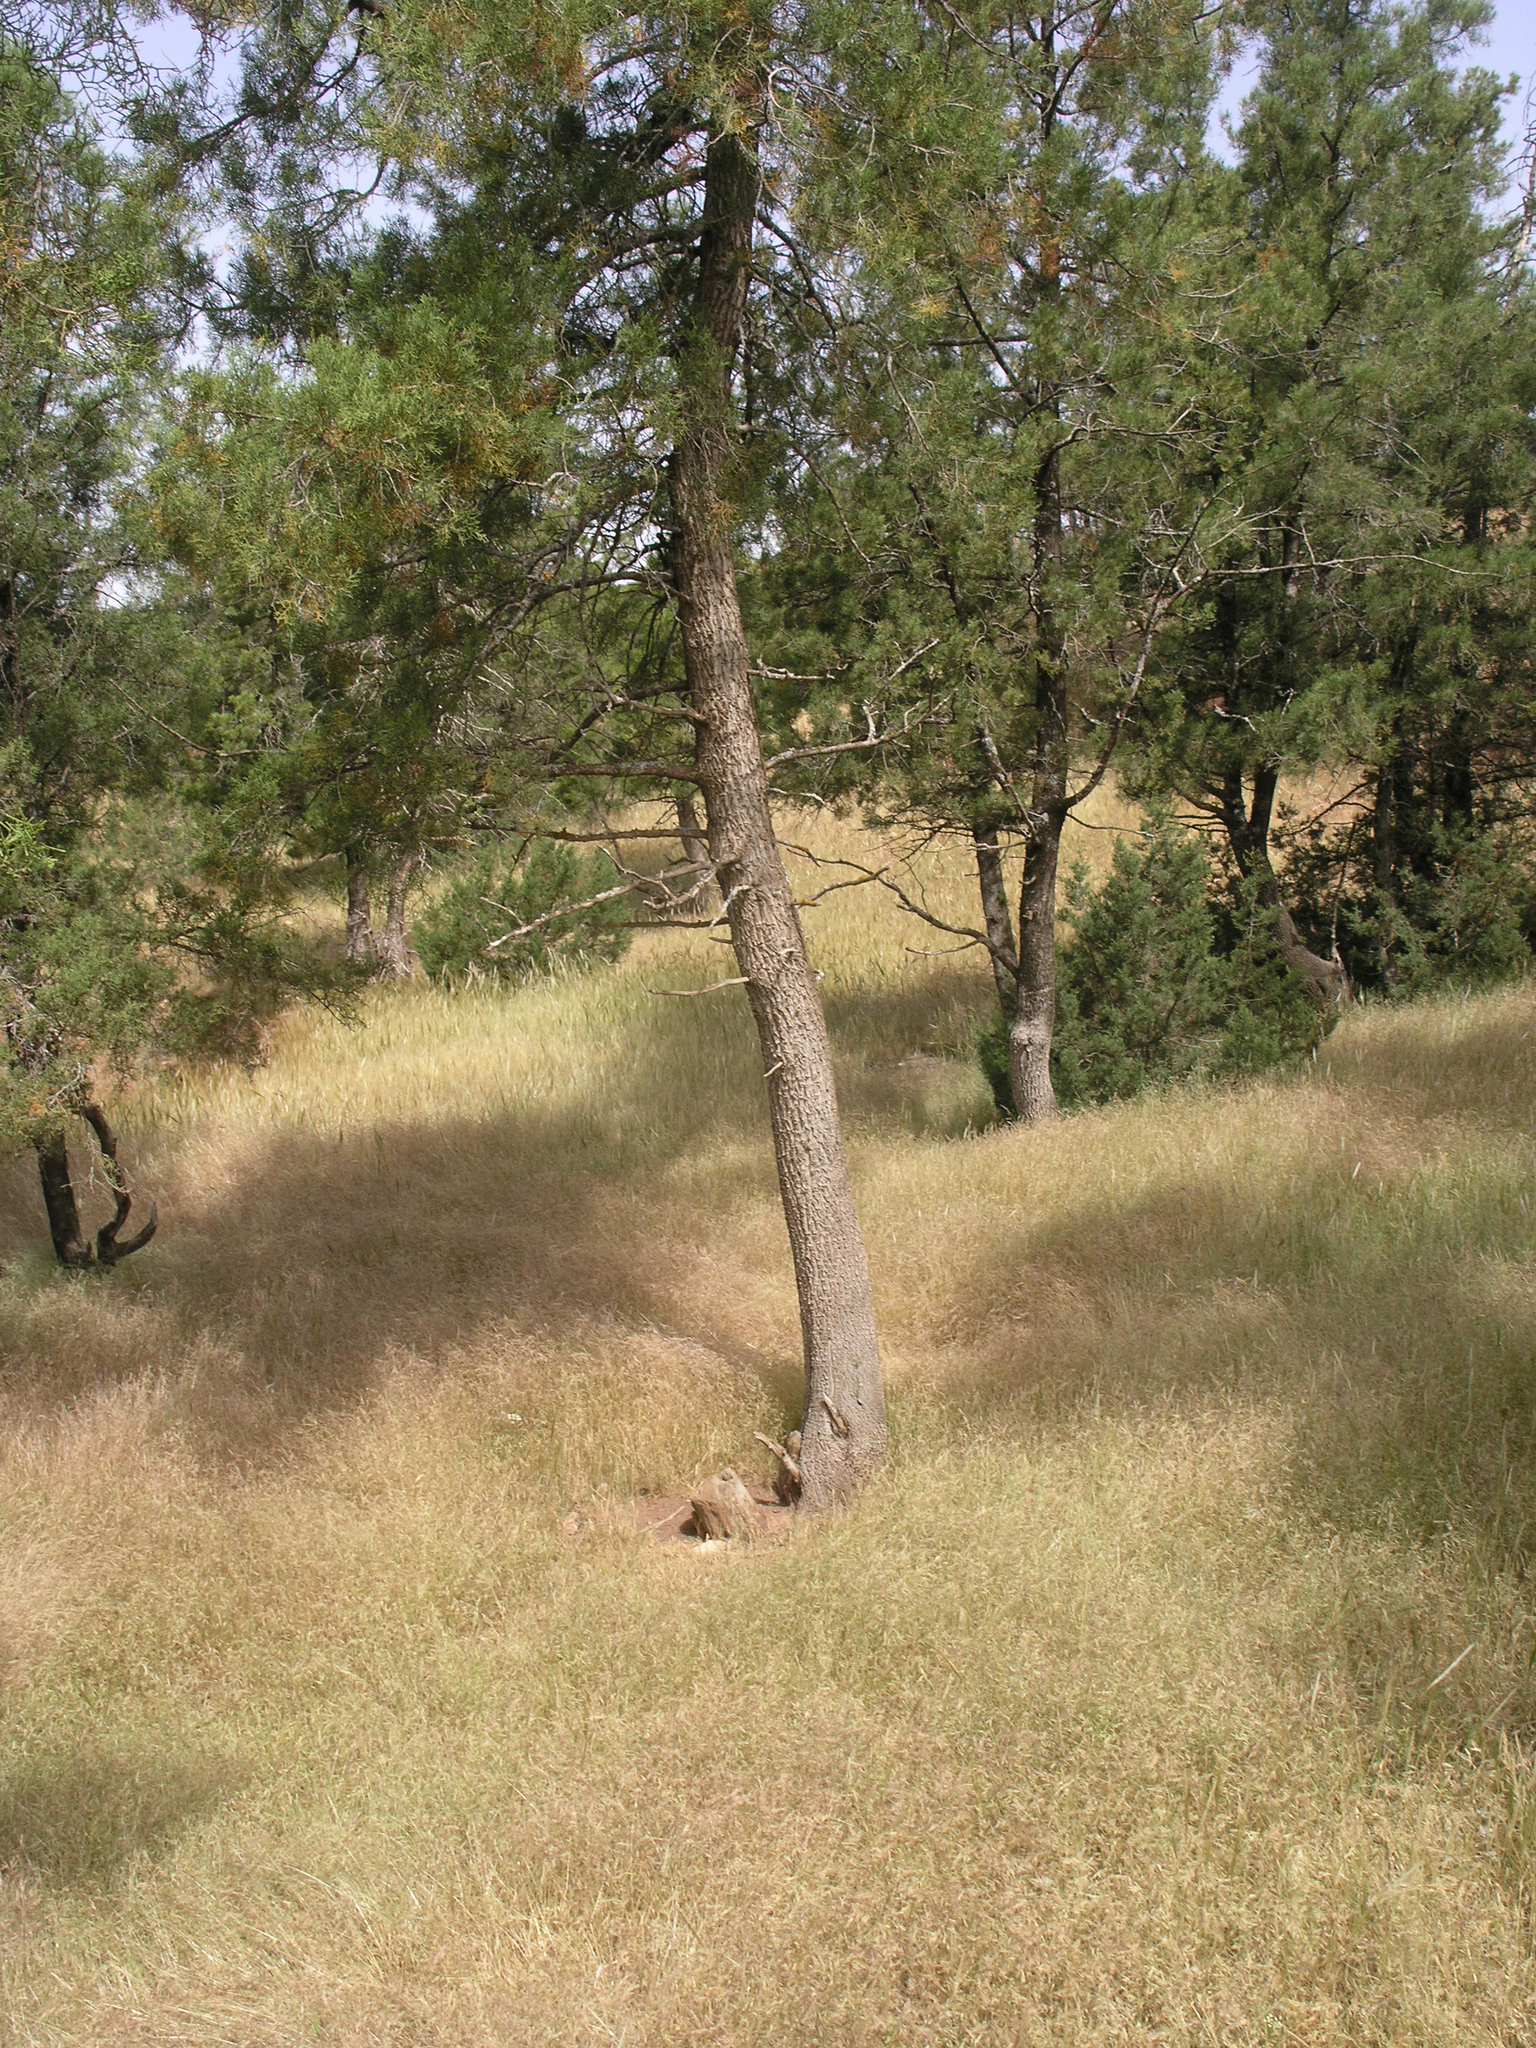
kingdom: Plantae
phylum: Tracheophyta
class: Pinopsida
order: Pinales
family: Cupressaceae
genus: Tetraclinis
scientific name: Tetraclinis articulata
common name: Sandarac
